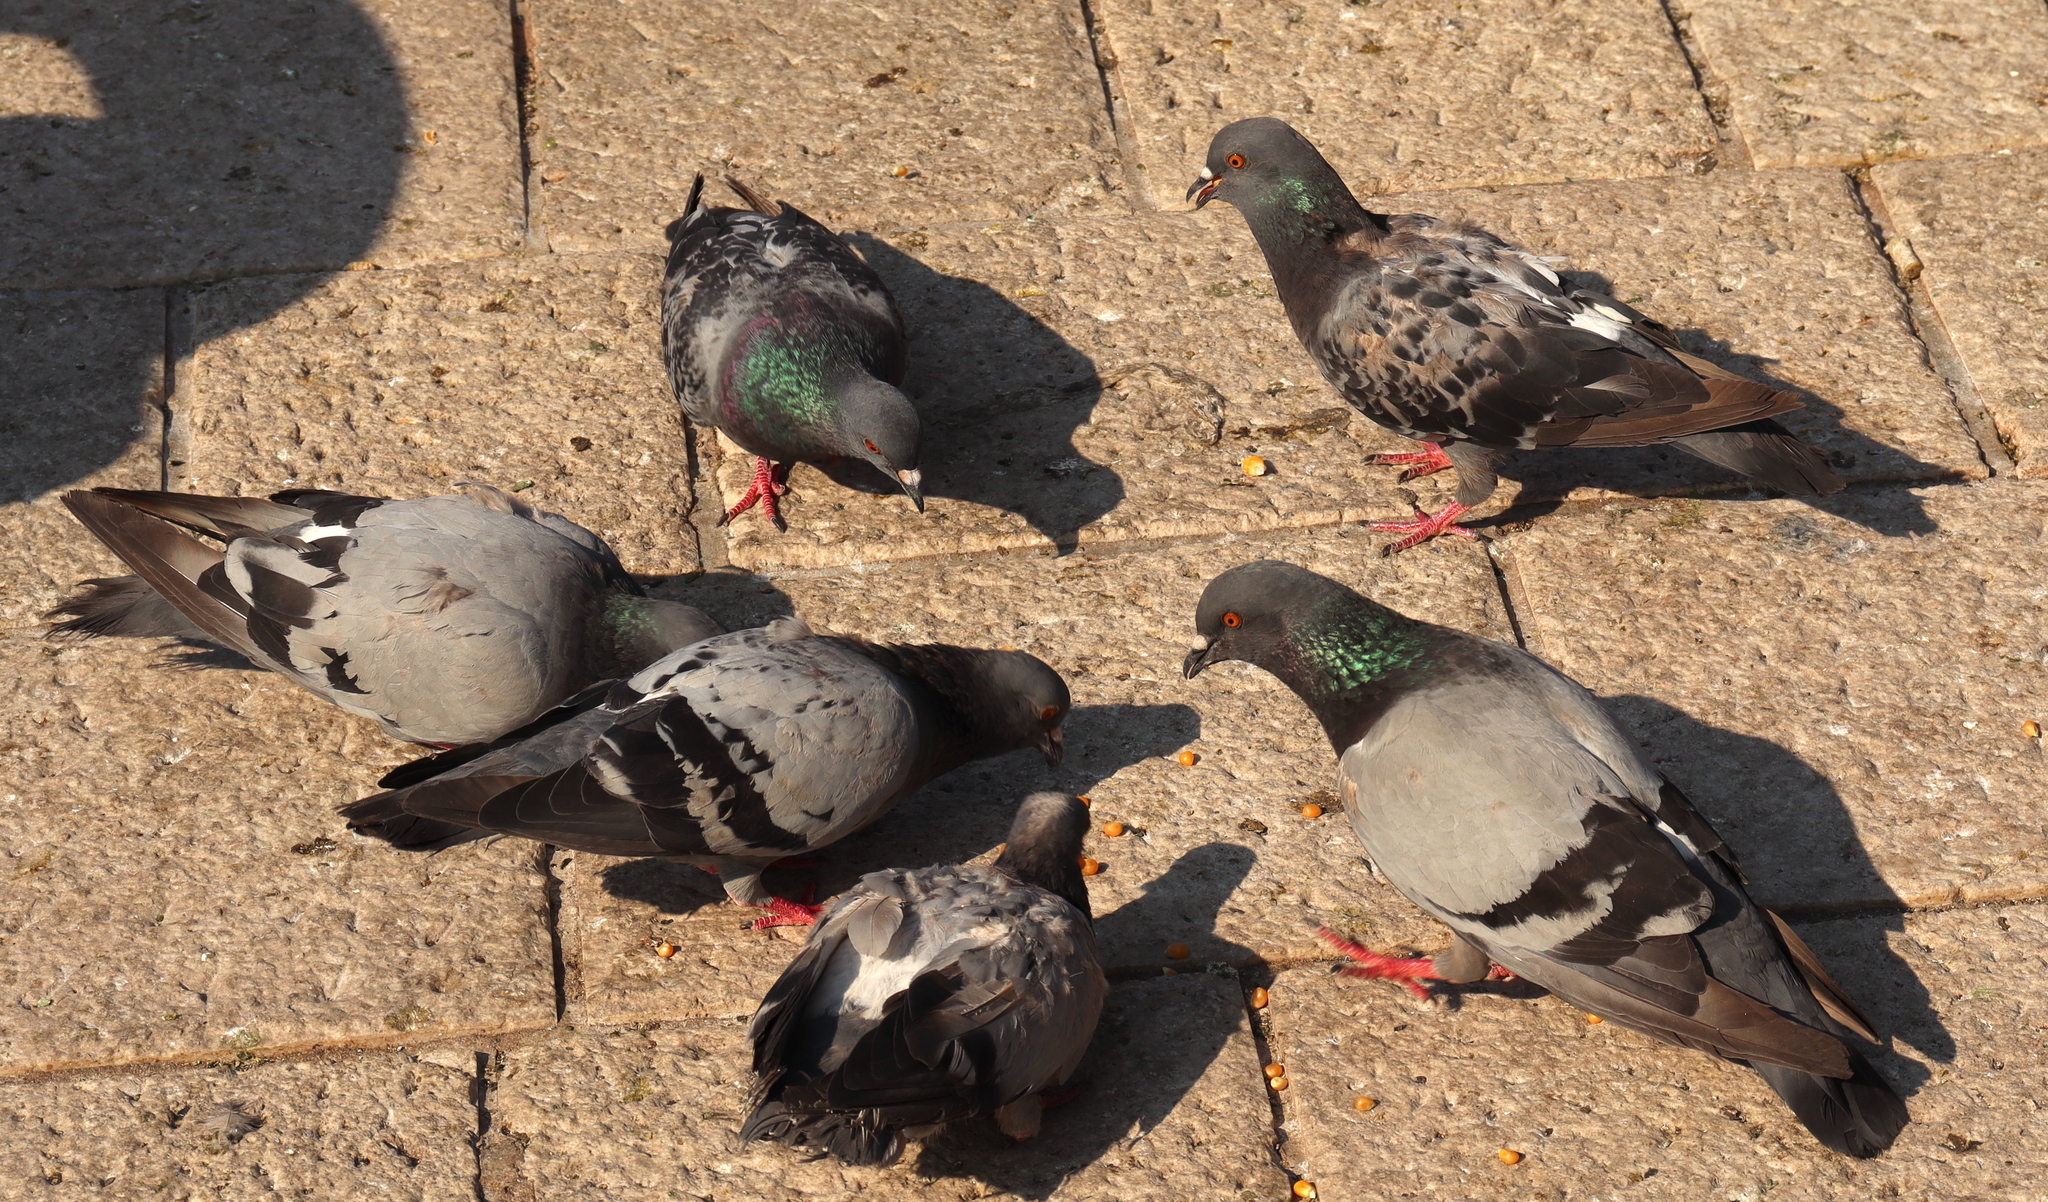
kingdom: Animalia
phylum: Chordata
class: Aves
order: Columbiformes
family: Columbidae
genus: Columba
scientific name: Columba livia
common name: Rock pigeon
